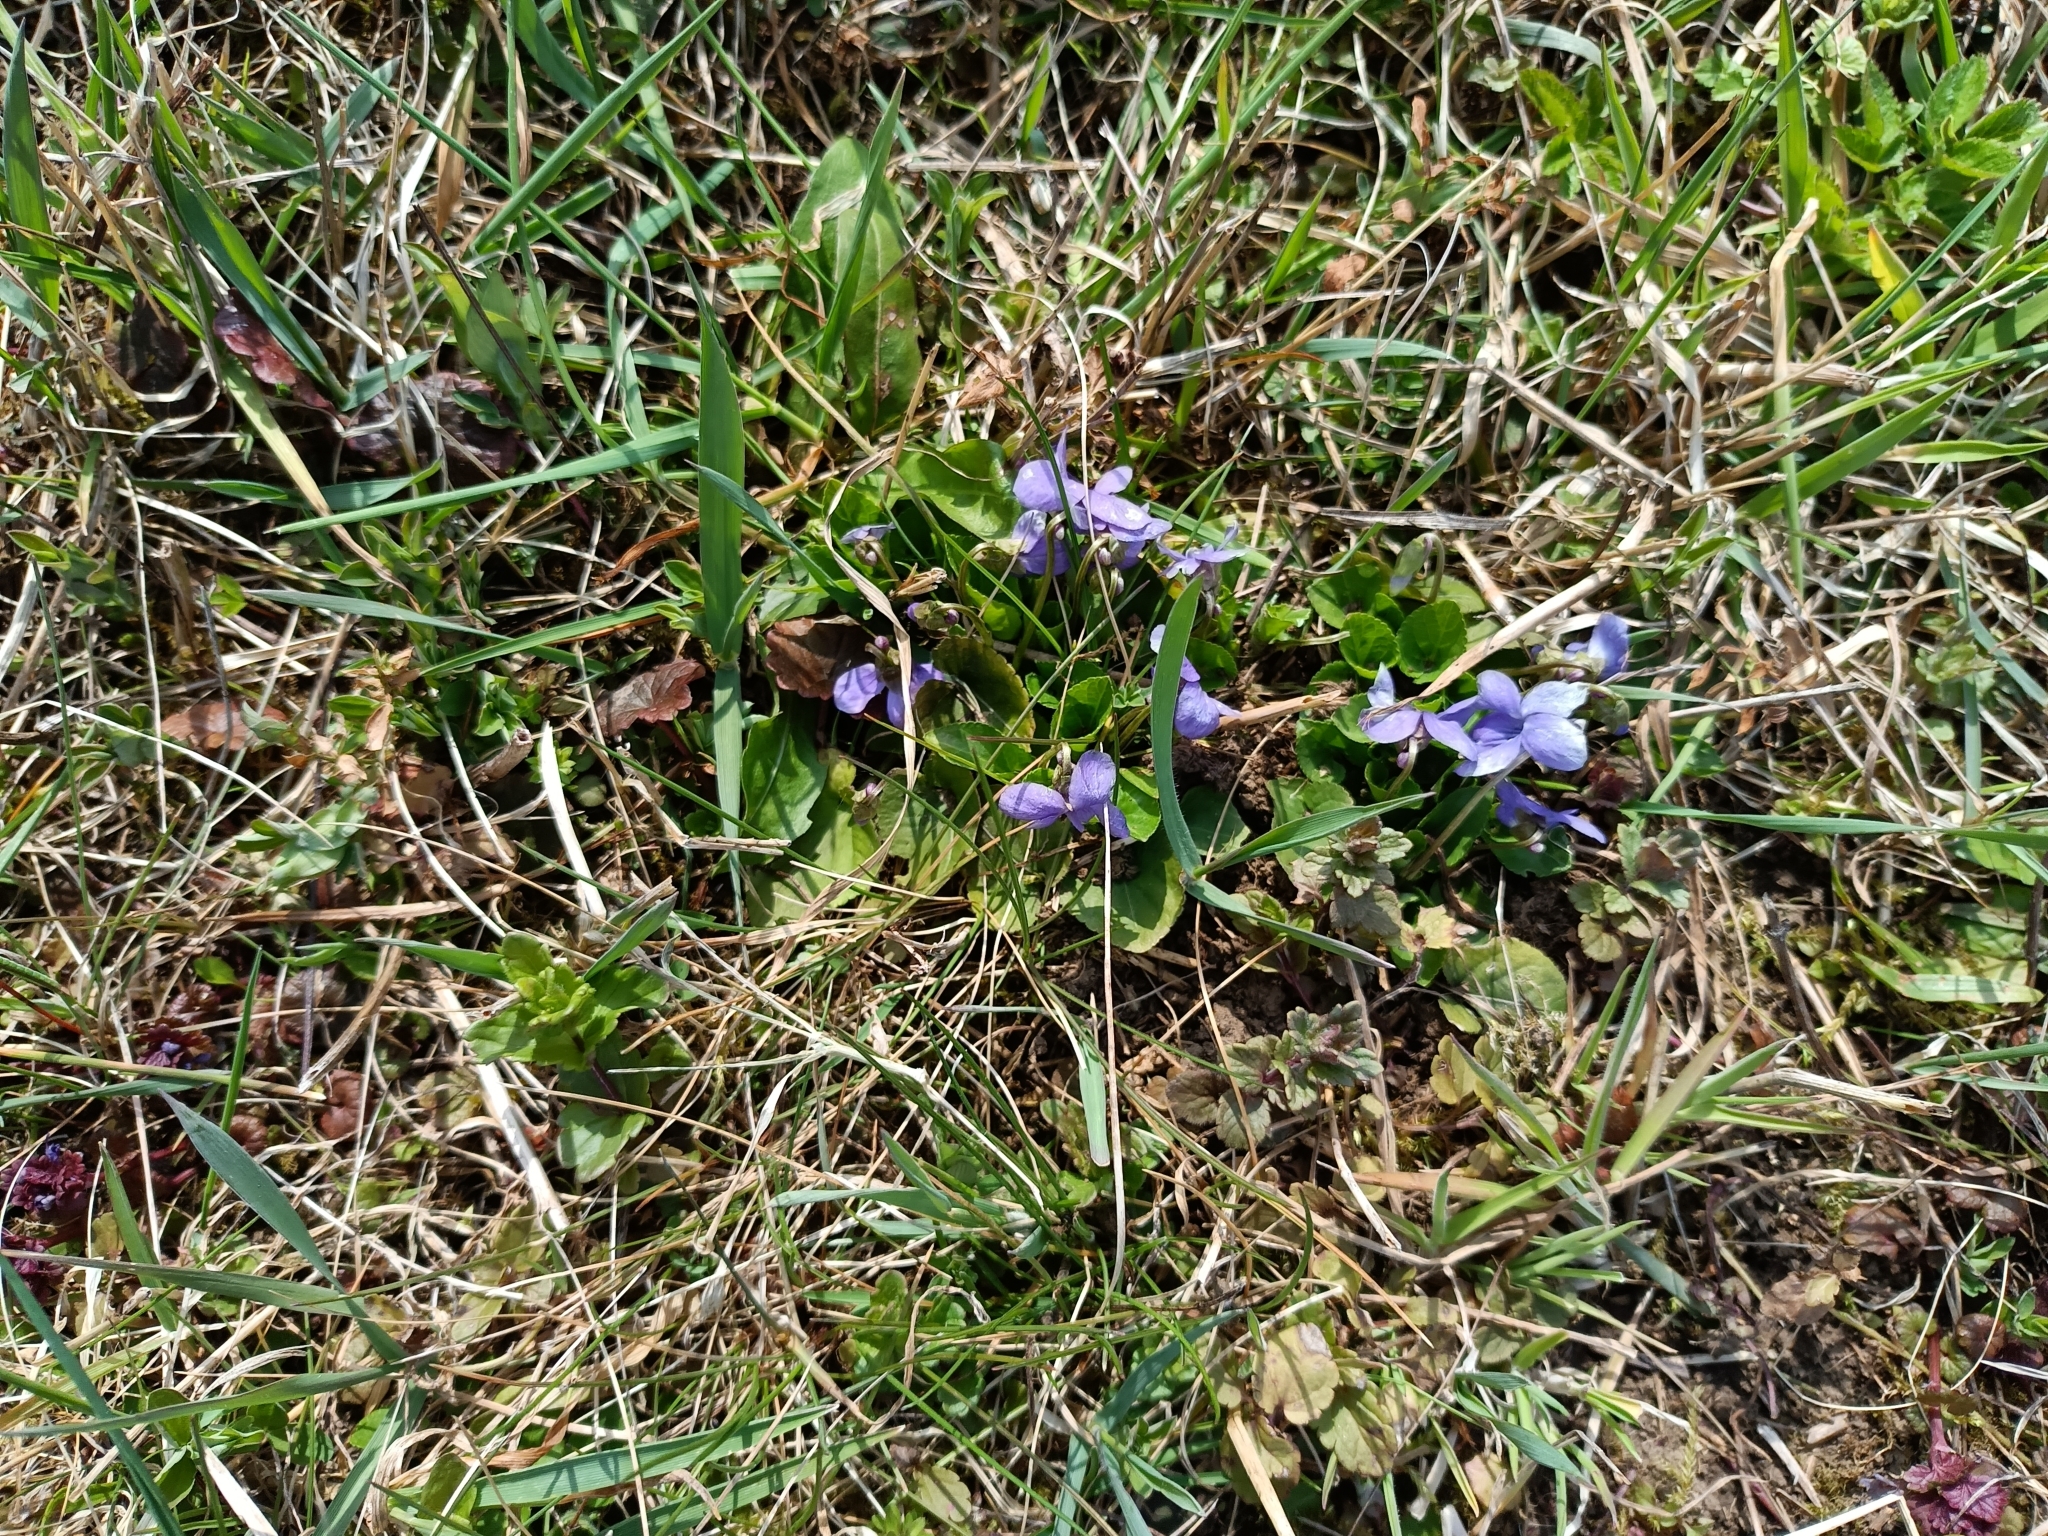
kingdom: Plantae
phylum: Tracheophyta
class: Magnoliopsida
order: Malpighiales
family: Violaceae
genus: Viola
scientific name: Viola suavis
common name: Russian violet
